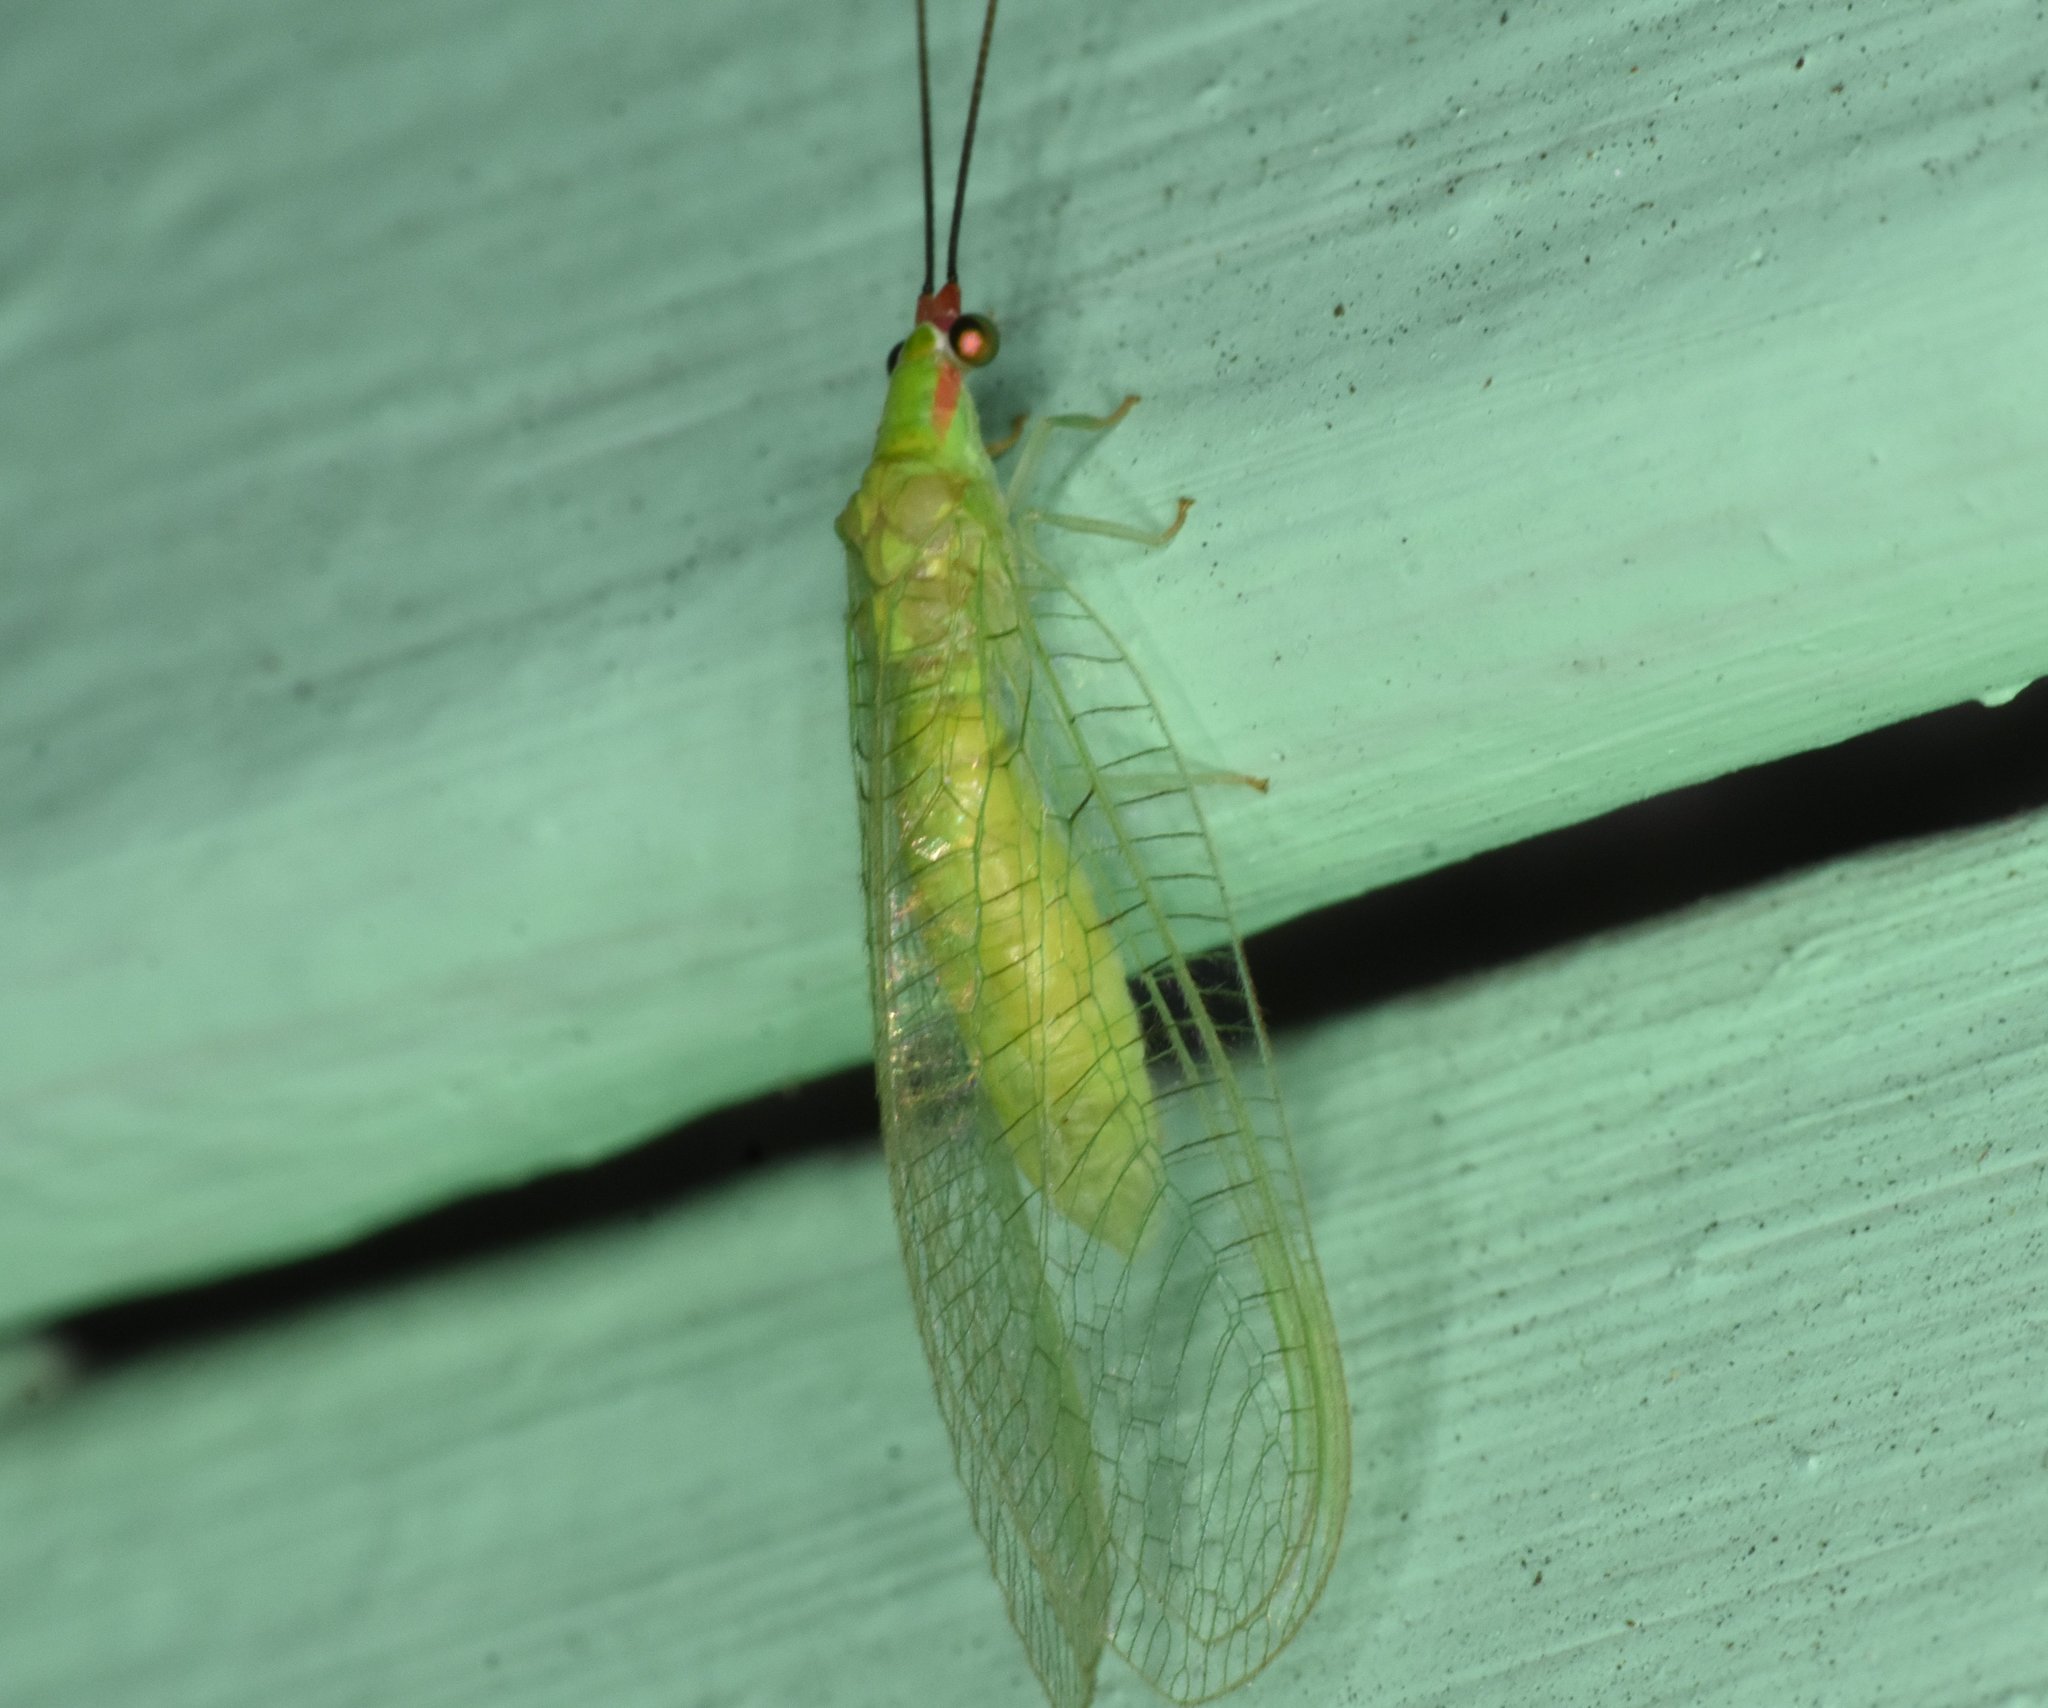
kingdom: Animalia
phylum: Arthropoda
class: Insecta
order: Neuroptera
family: Chrysopidae
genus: Ceraeochrysa
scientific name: Ceraeochrysa smithi
